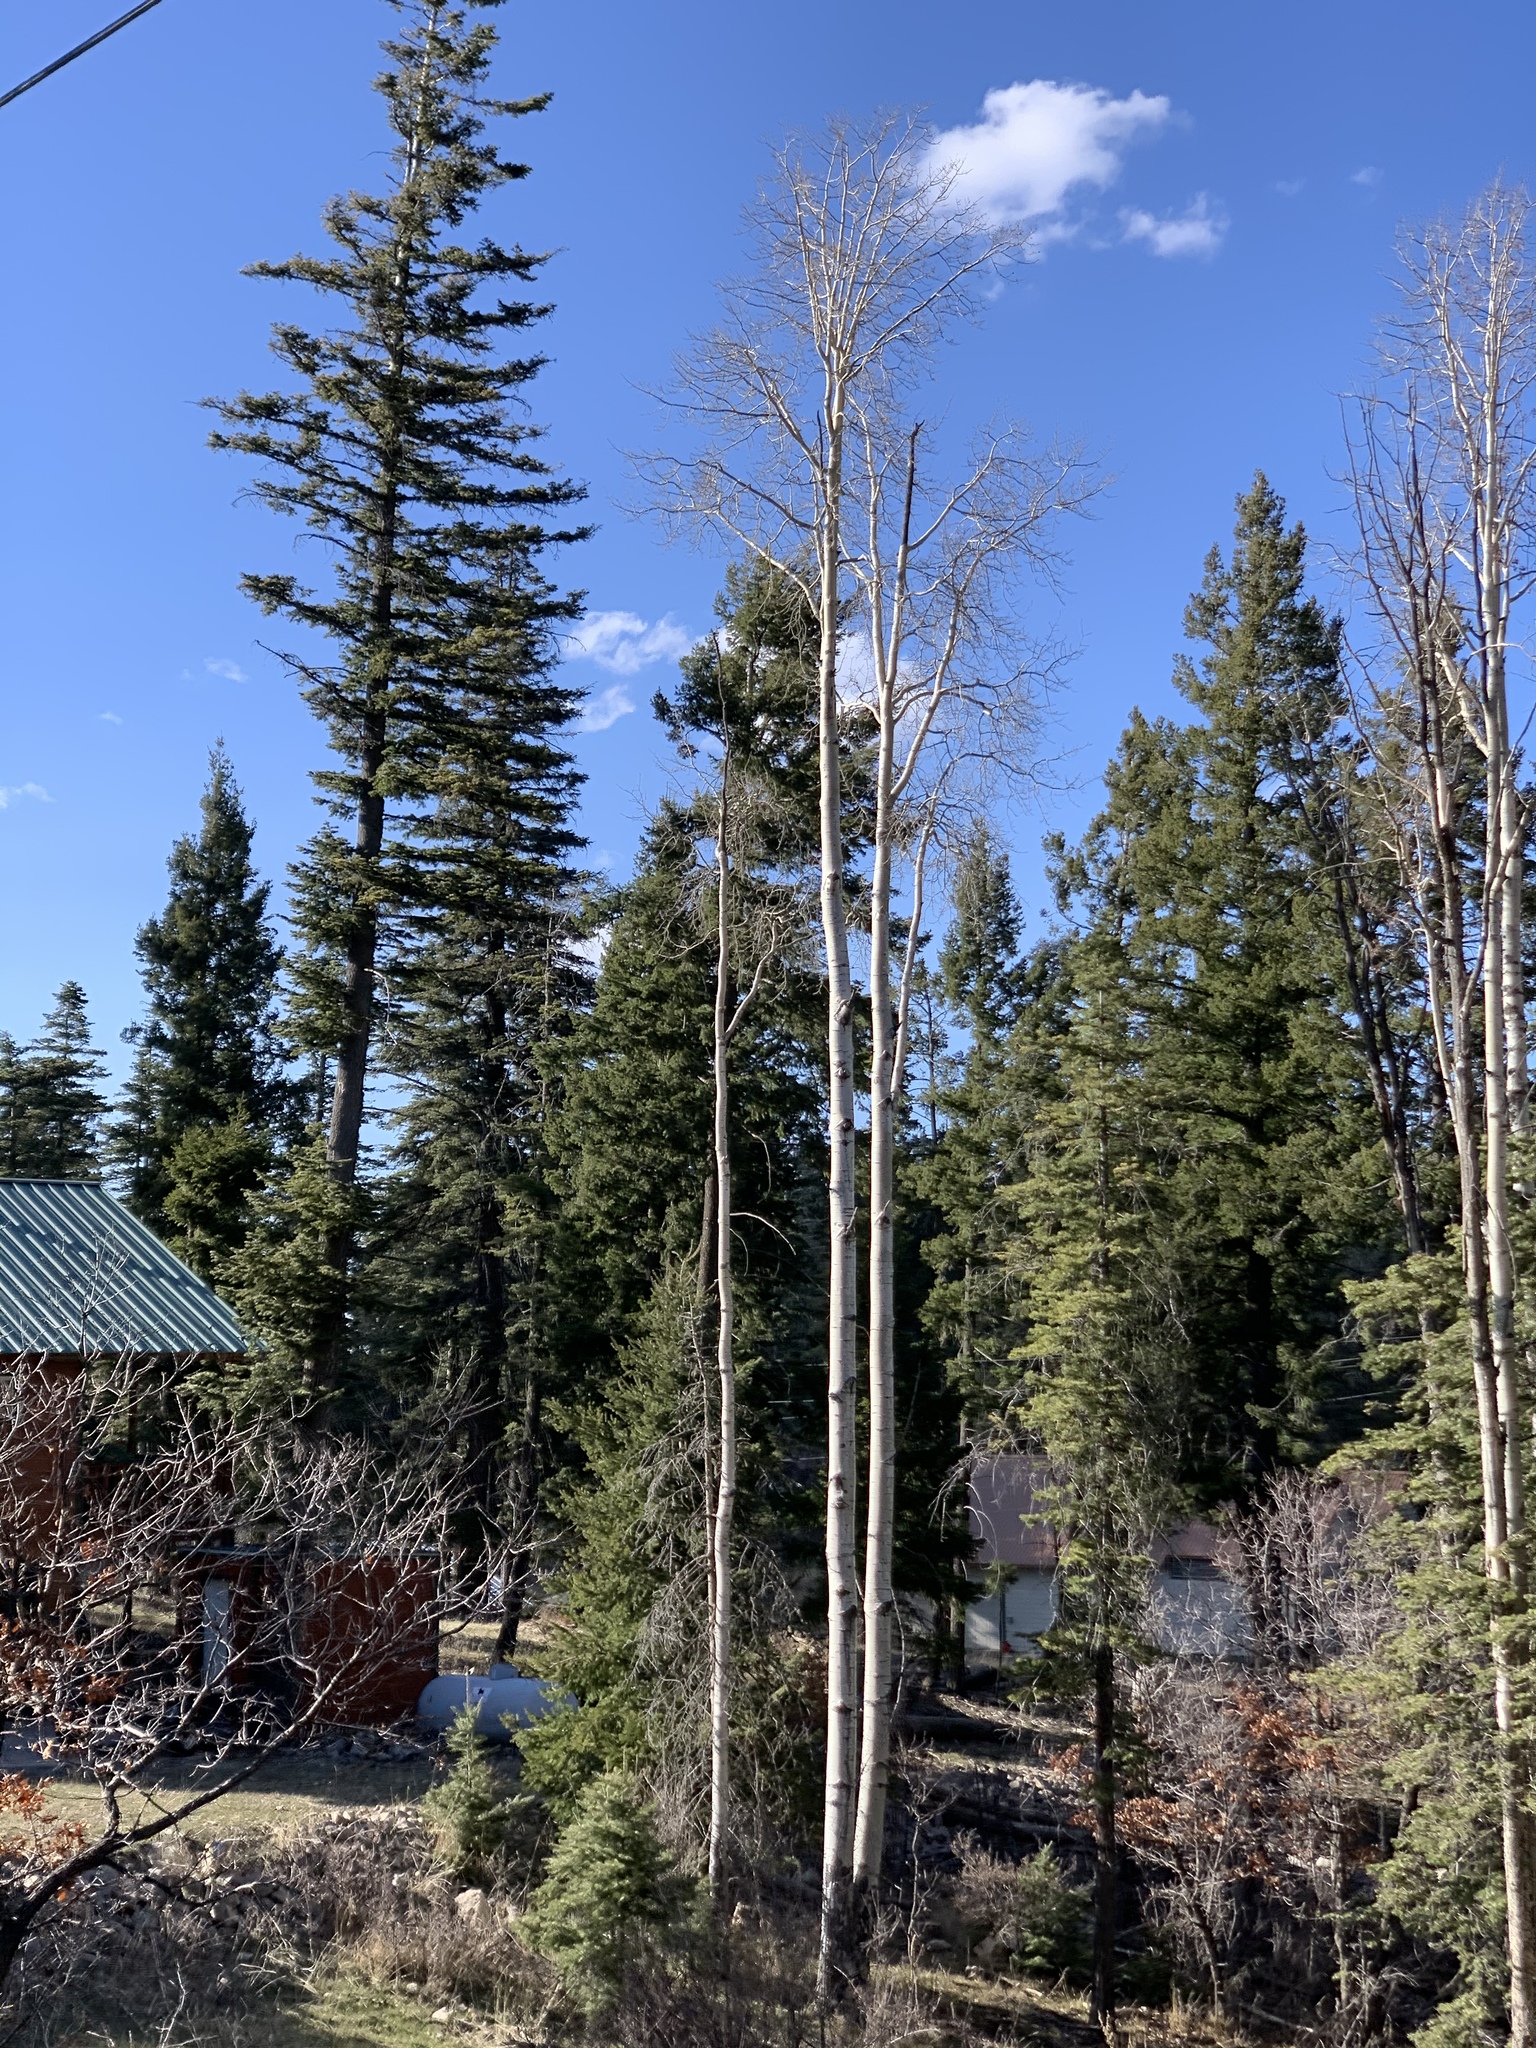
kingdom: Plantae
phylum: Tracheophyta
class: Magnoliopsida
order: Malpighiales
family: Salicaceae
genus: Populus
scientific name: Populus tremuloides
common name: Quaking aspen
